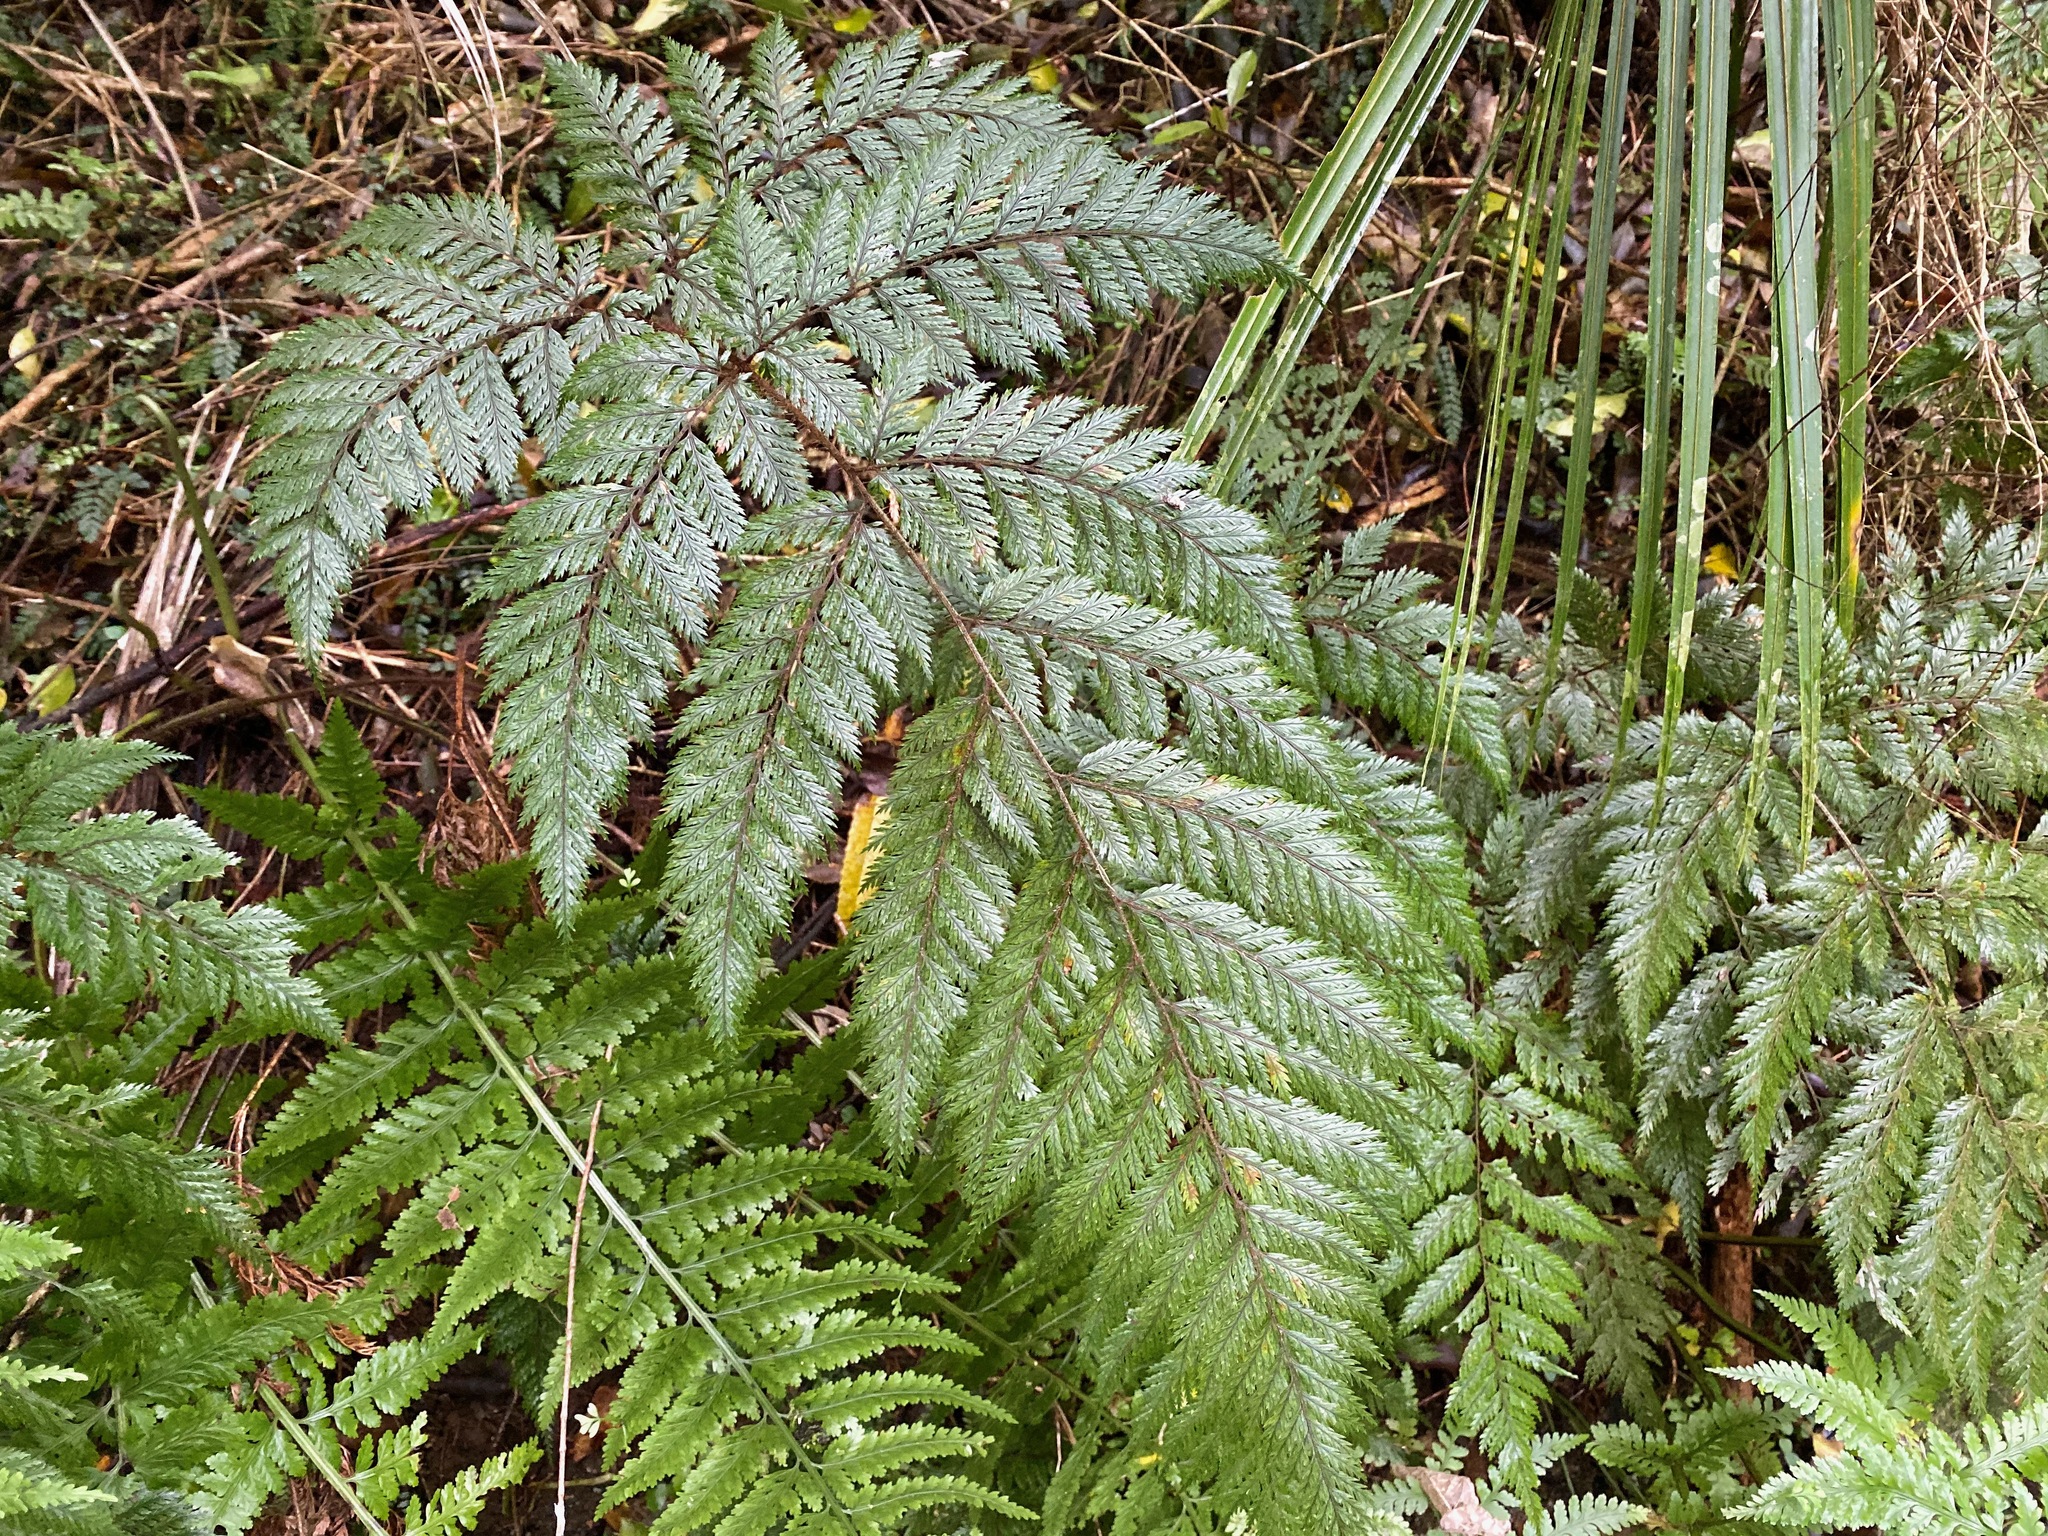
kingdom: Plantae
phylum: Tracheophyta
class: Polypodiopsida
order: Polypodiales
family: Dryopteridaceae
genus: Lastreopsis
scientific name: Lastreopsis hispida
